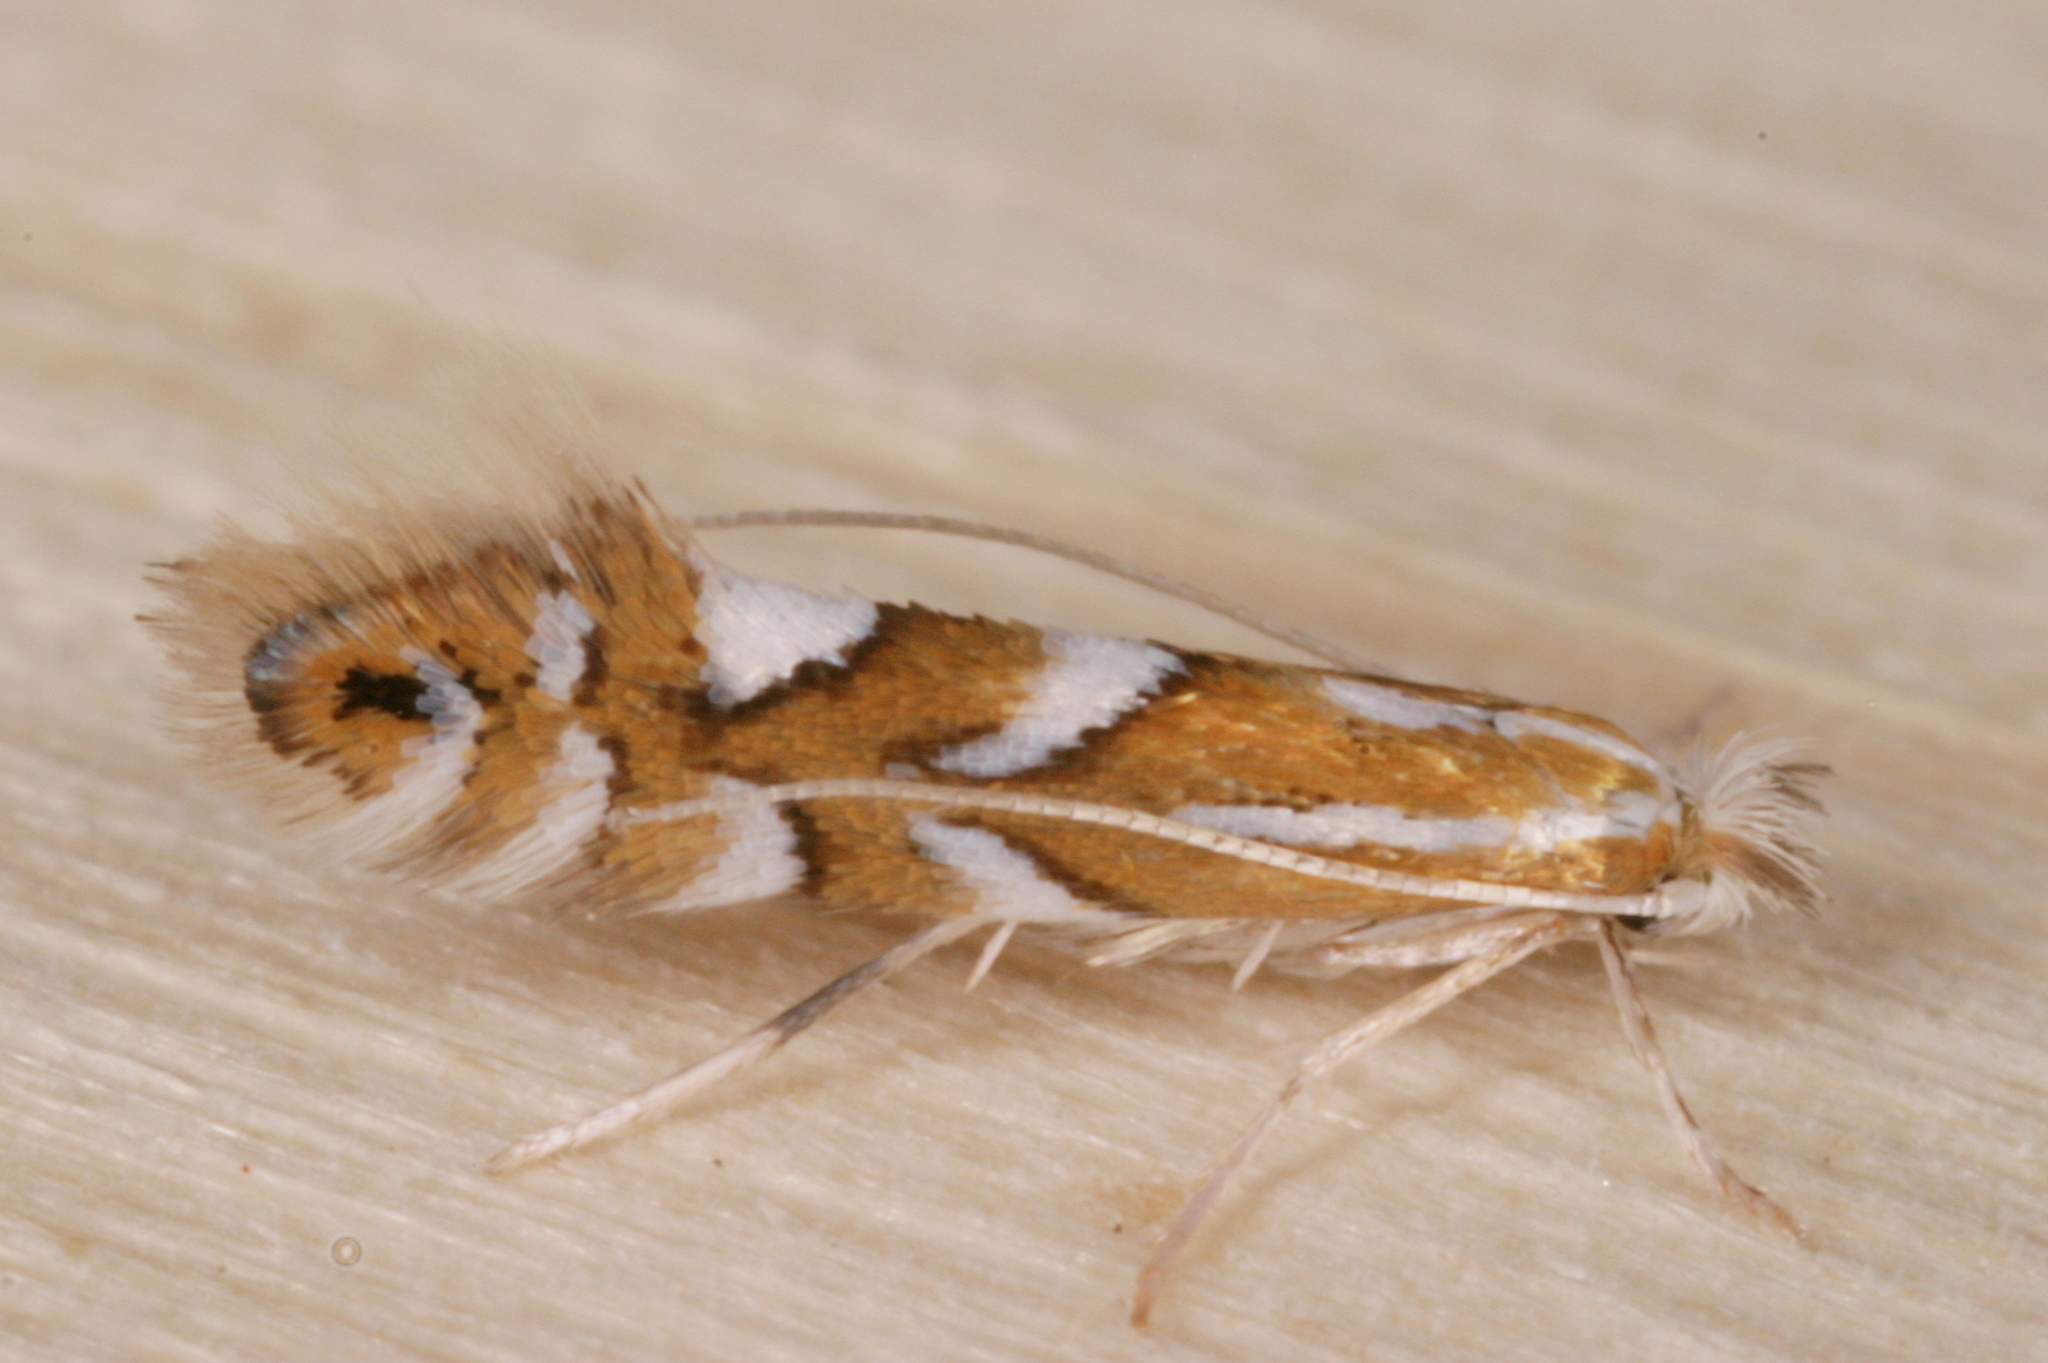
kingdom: Animalia
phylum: Arthropoda
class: Insecta
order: Lepidoptera
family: Gracillariidae
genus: Phyllonorycter
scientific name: Phyllonorycter maestingella
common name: Beech midget
